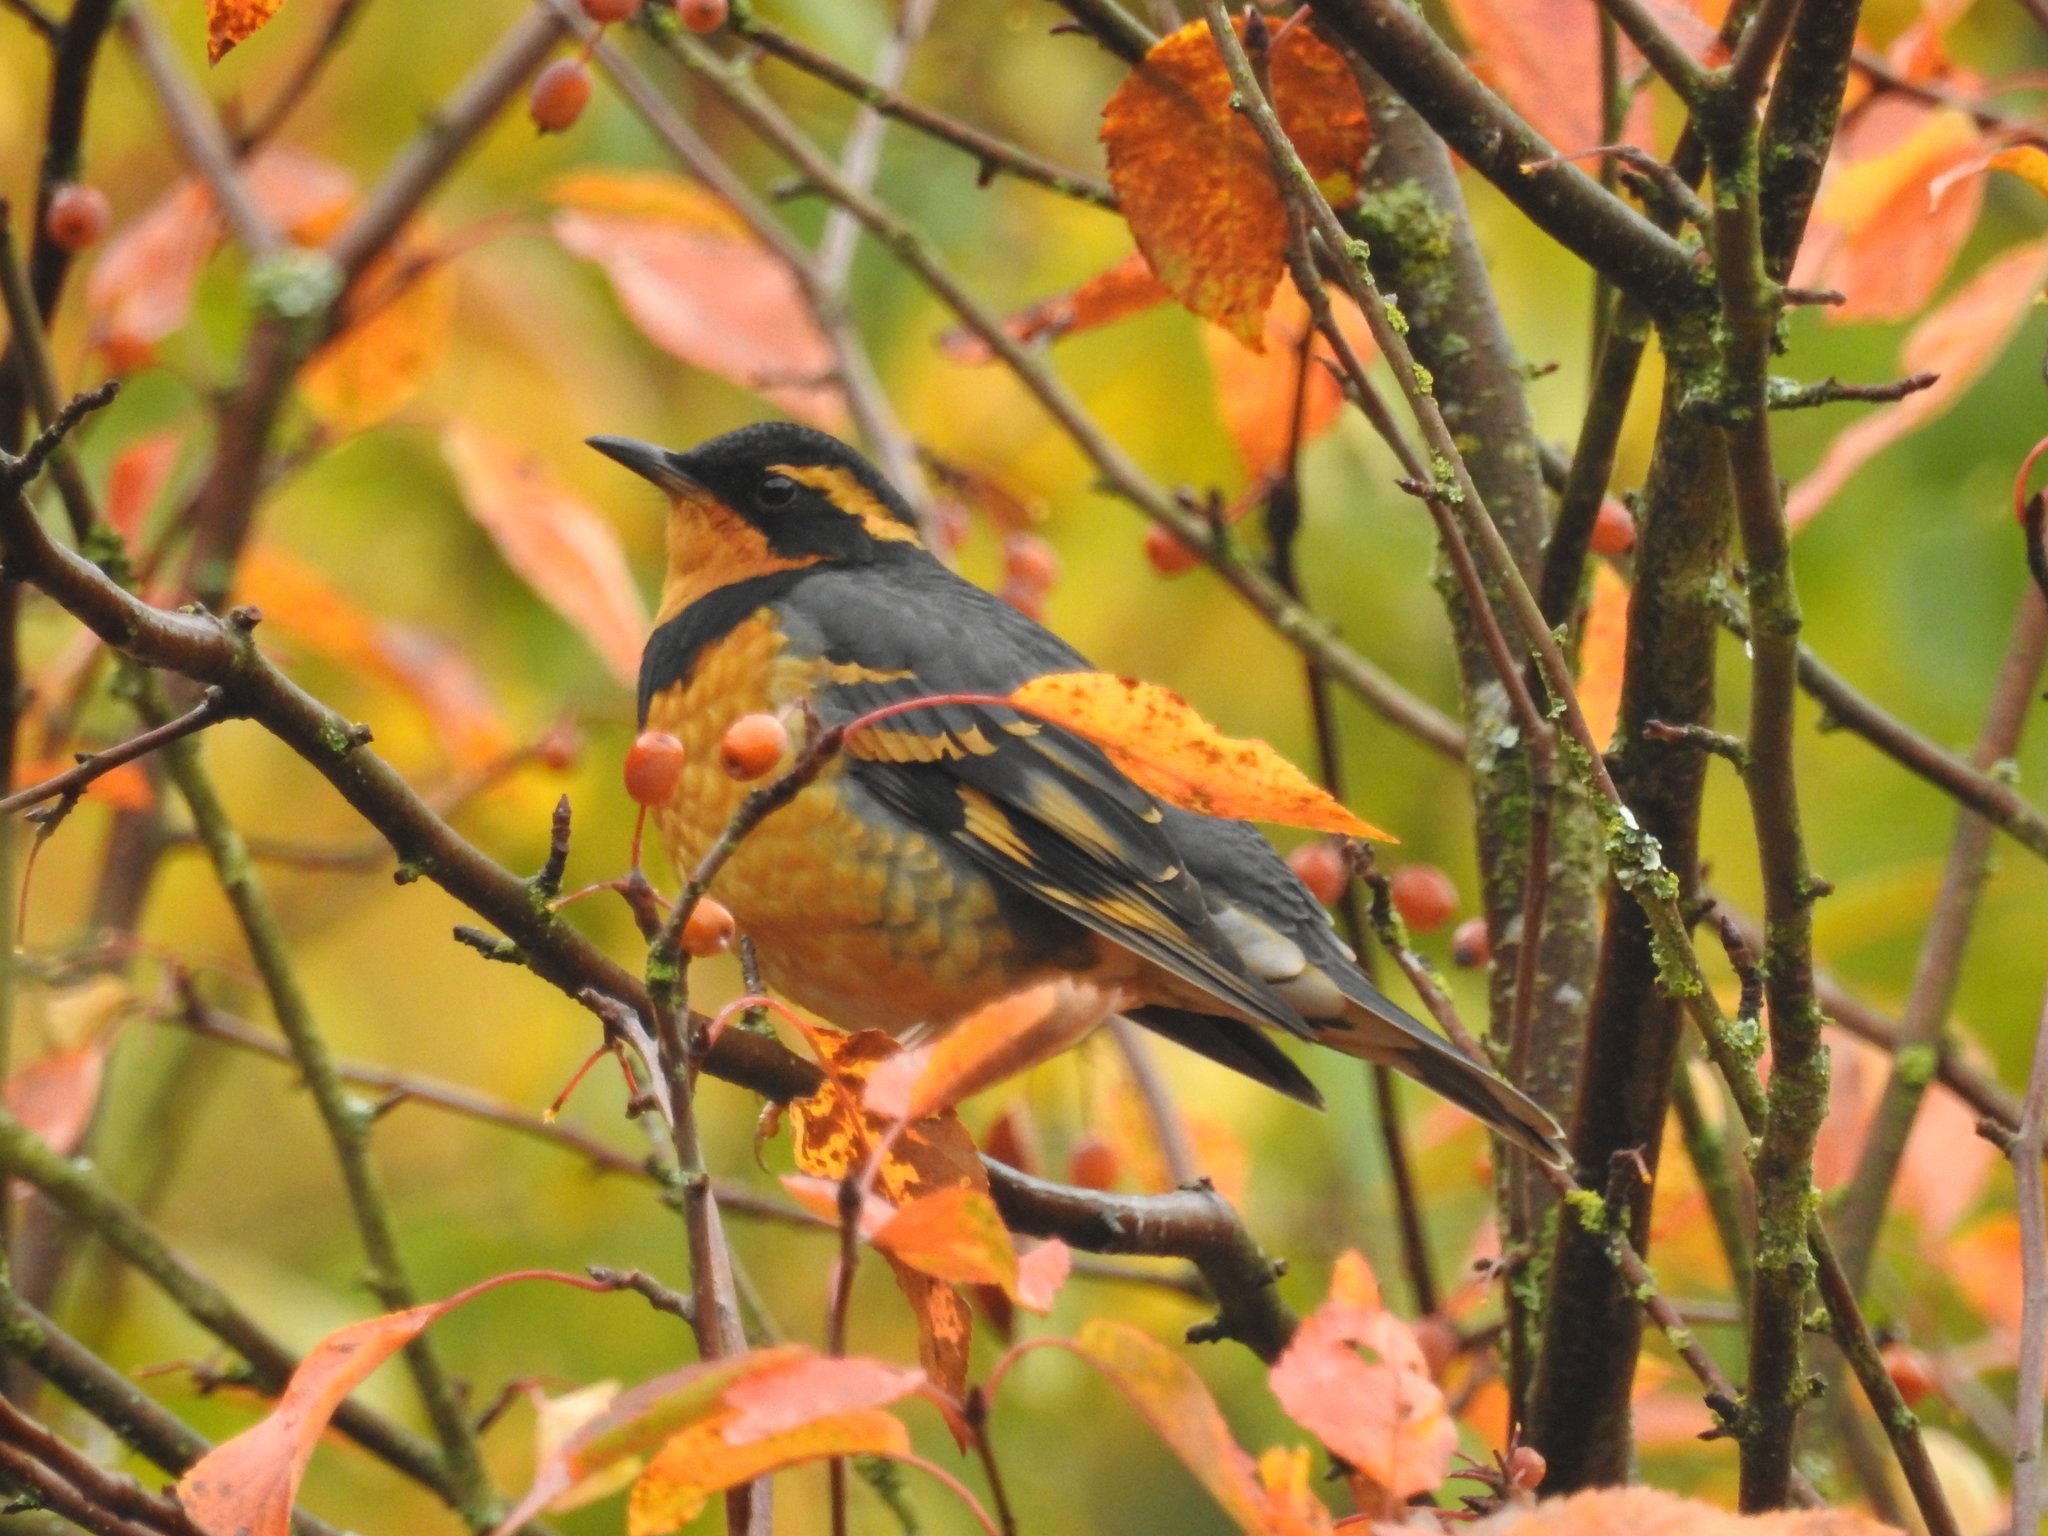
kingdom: Animalia
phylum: Chordata
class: Aves
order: Passeriformes
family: Turdidae
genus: Ixoreus
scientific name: Ixoreus naevius
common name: Varied thrush
